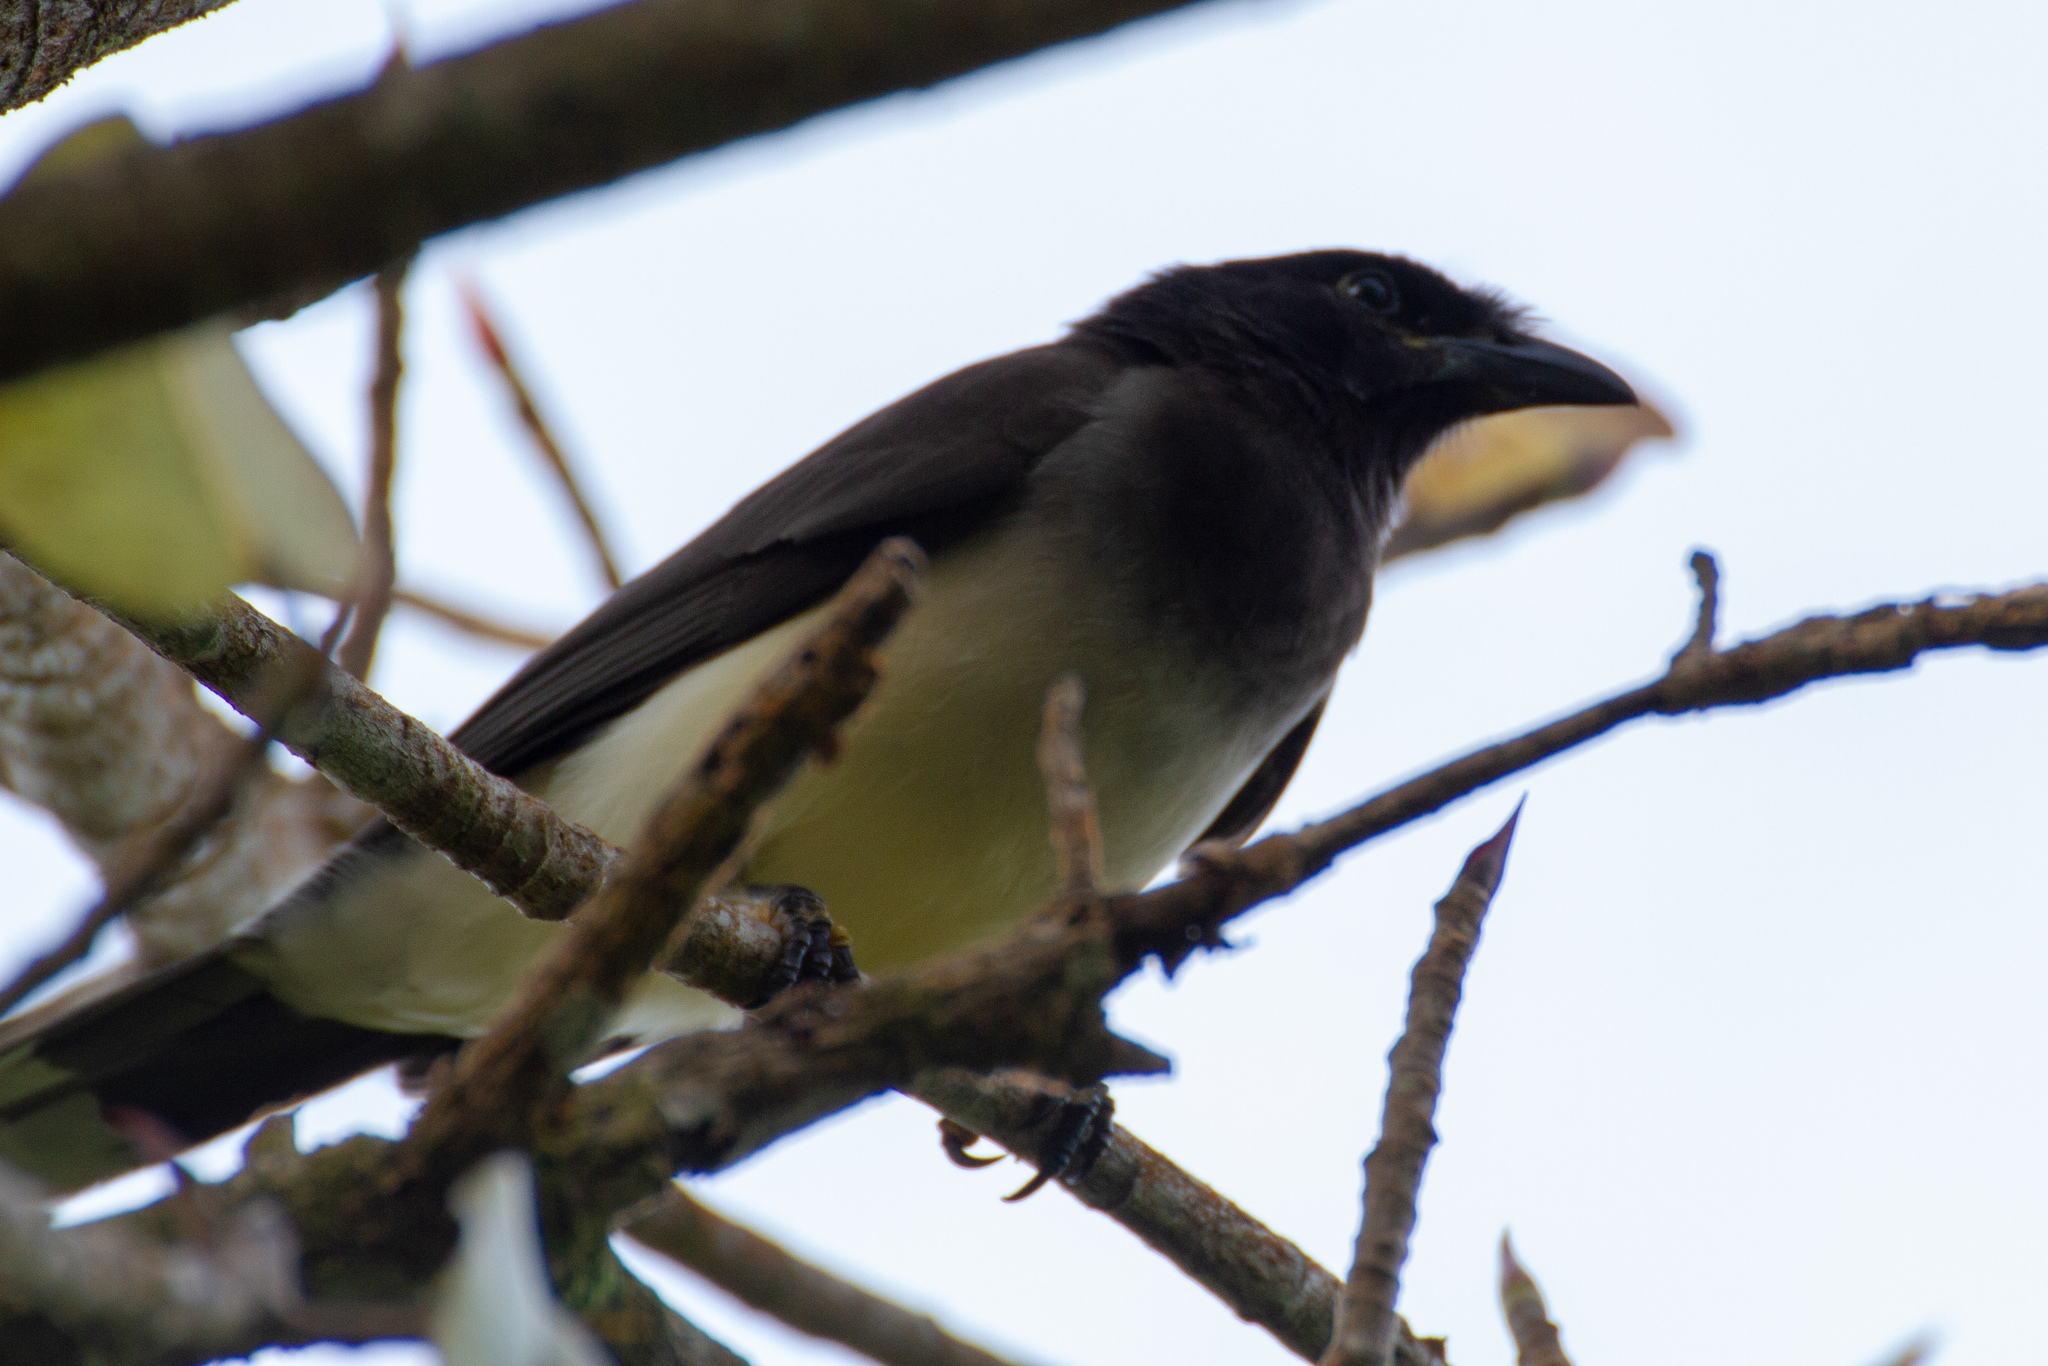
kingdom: Animalia
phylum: Chordata
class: Aves
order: Passeriformes
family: Corvidae
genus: Psilorhinus
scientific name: Psilorhinus morio
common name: Brown jay
